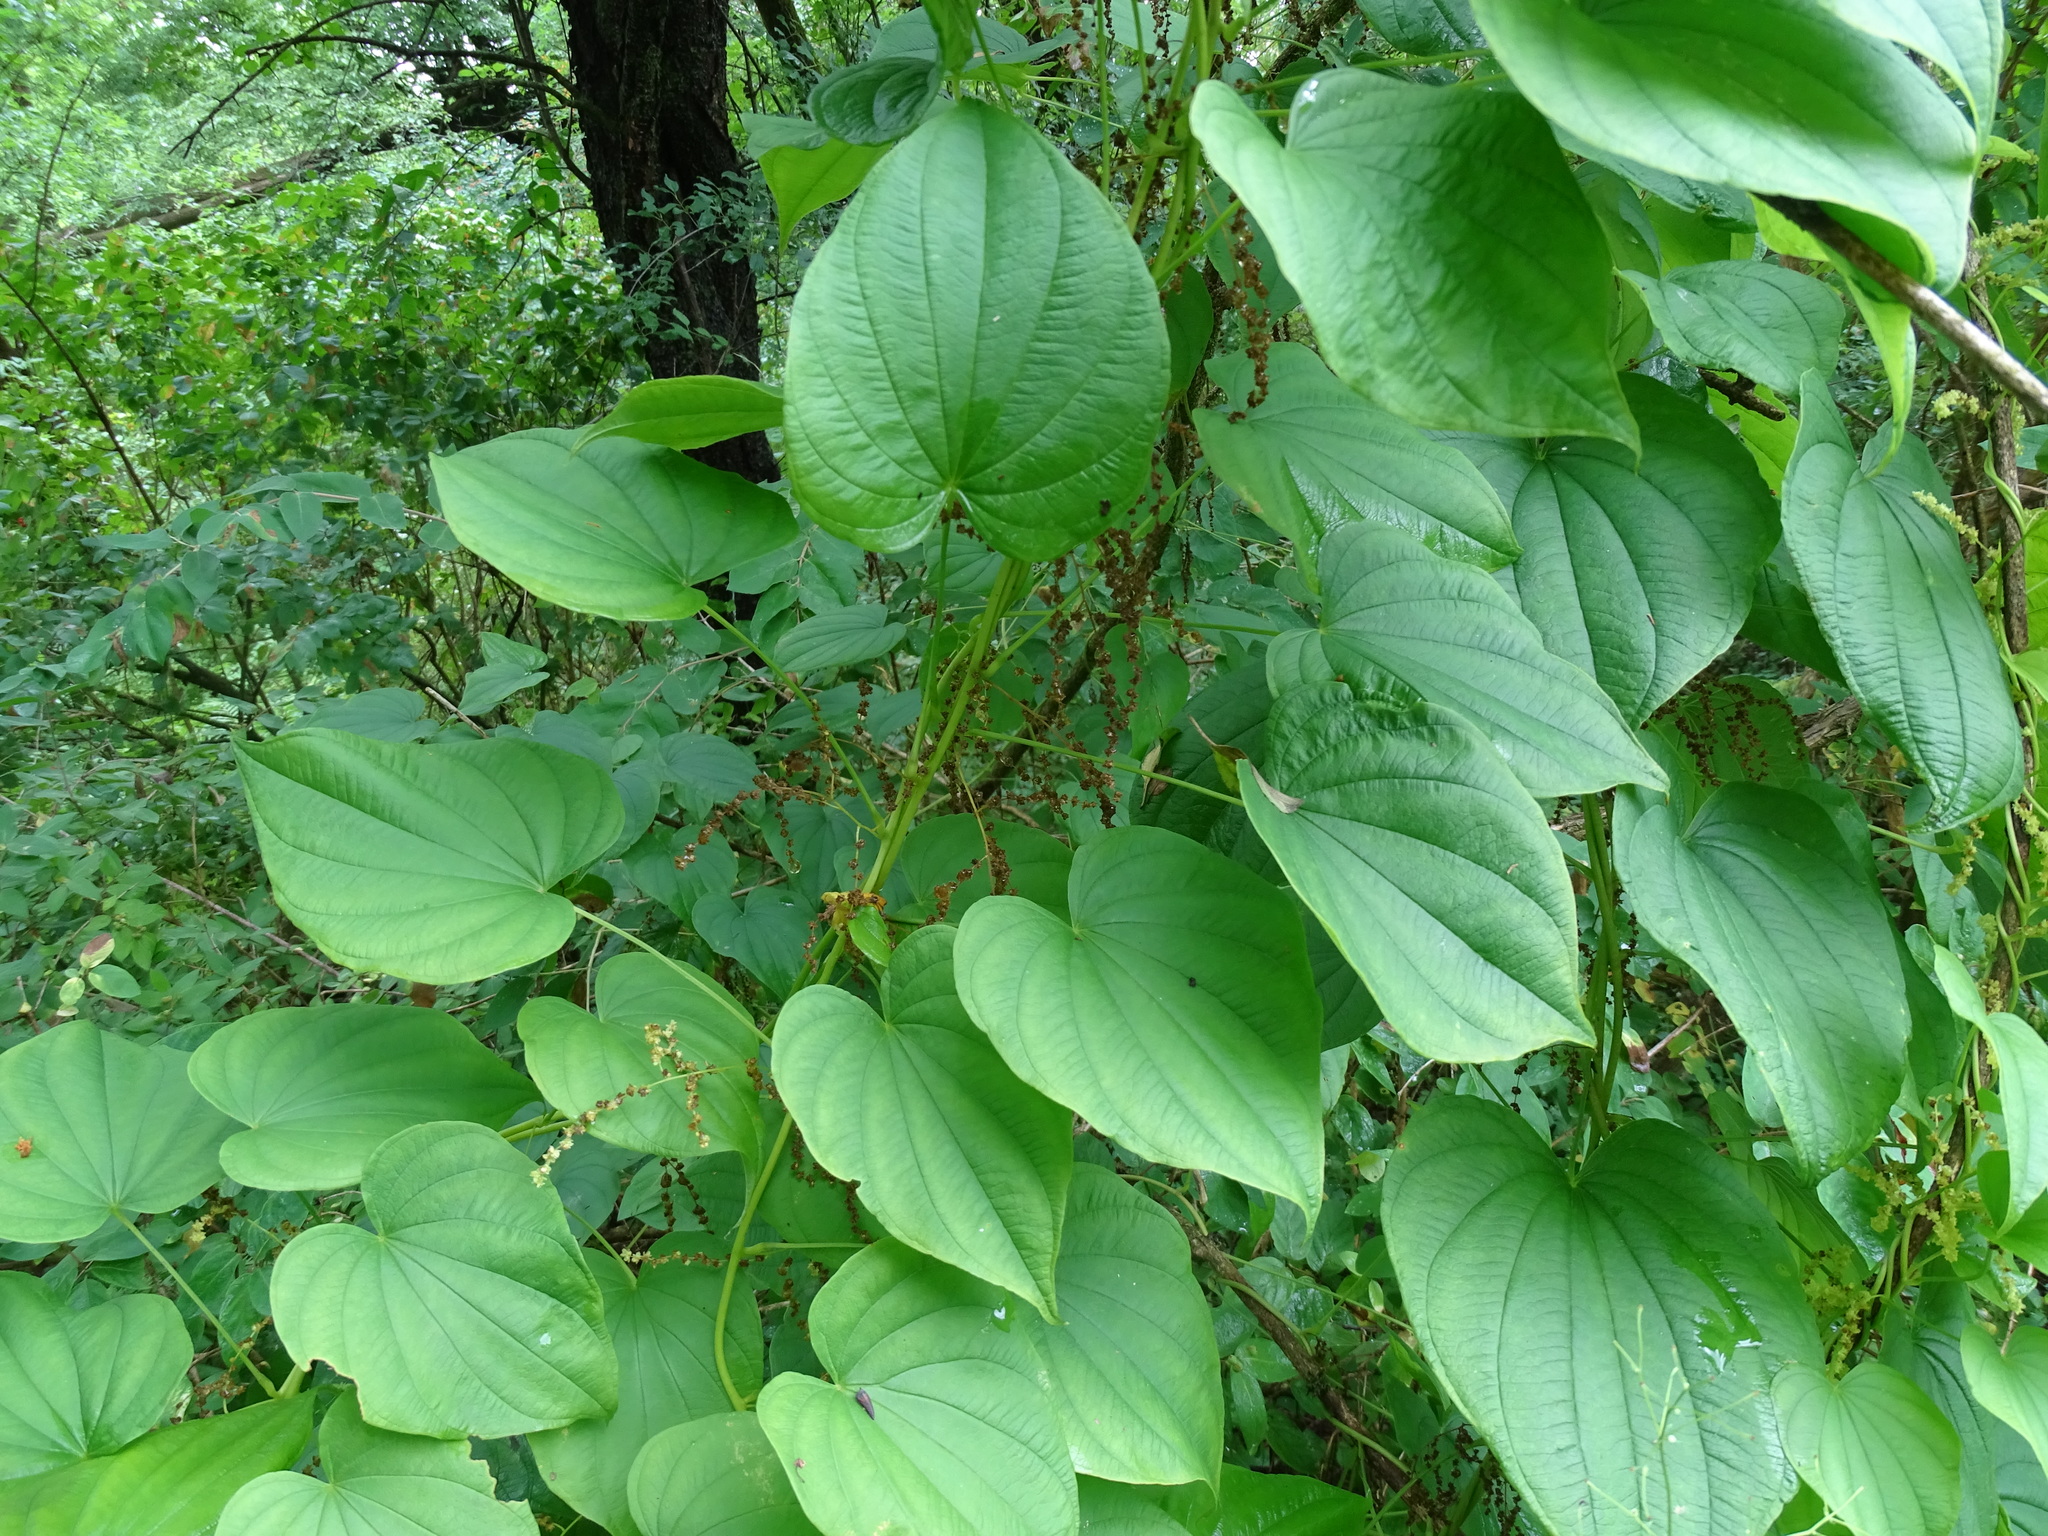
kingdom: Plantae
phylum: Tracheophyta
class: Liliopsida
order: Dioscoreales
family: Dioscoreaceae
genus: Dioscorea
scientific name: Dioscorea villosa
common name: Wild yam
